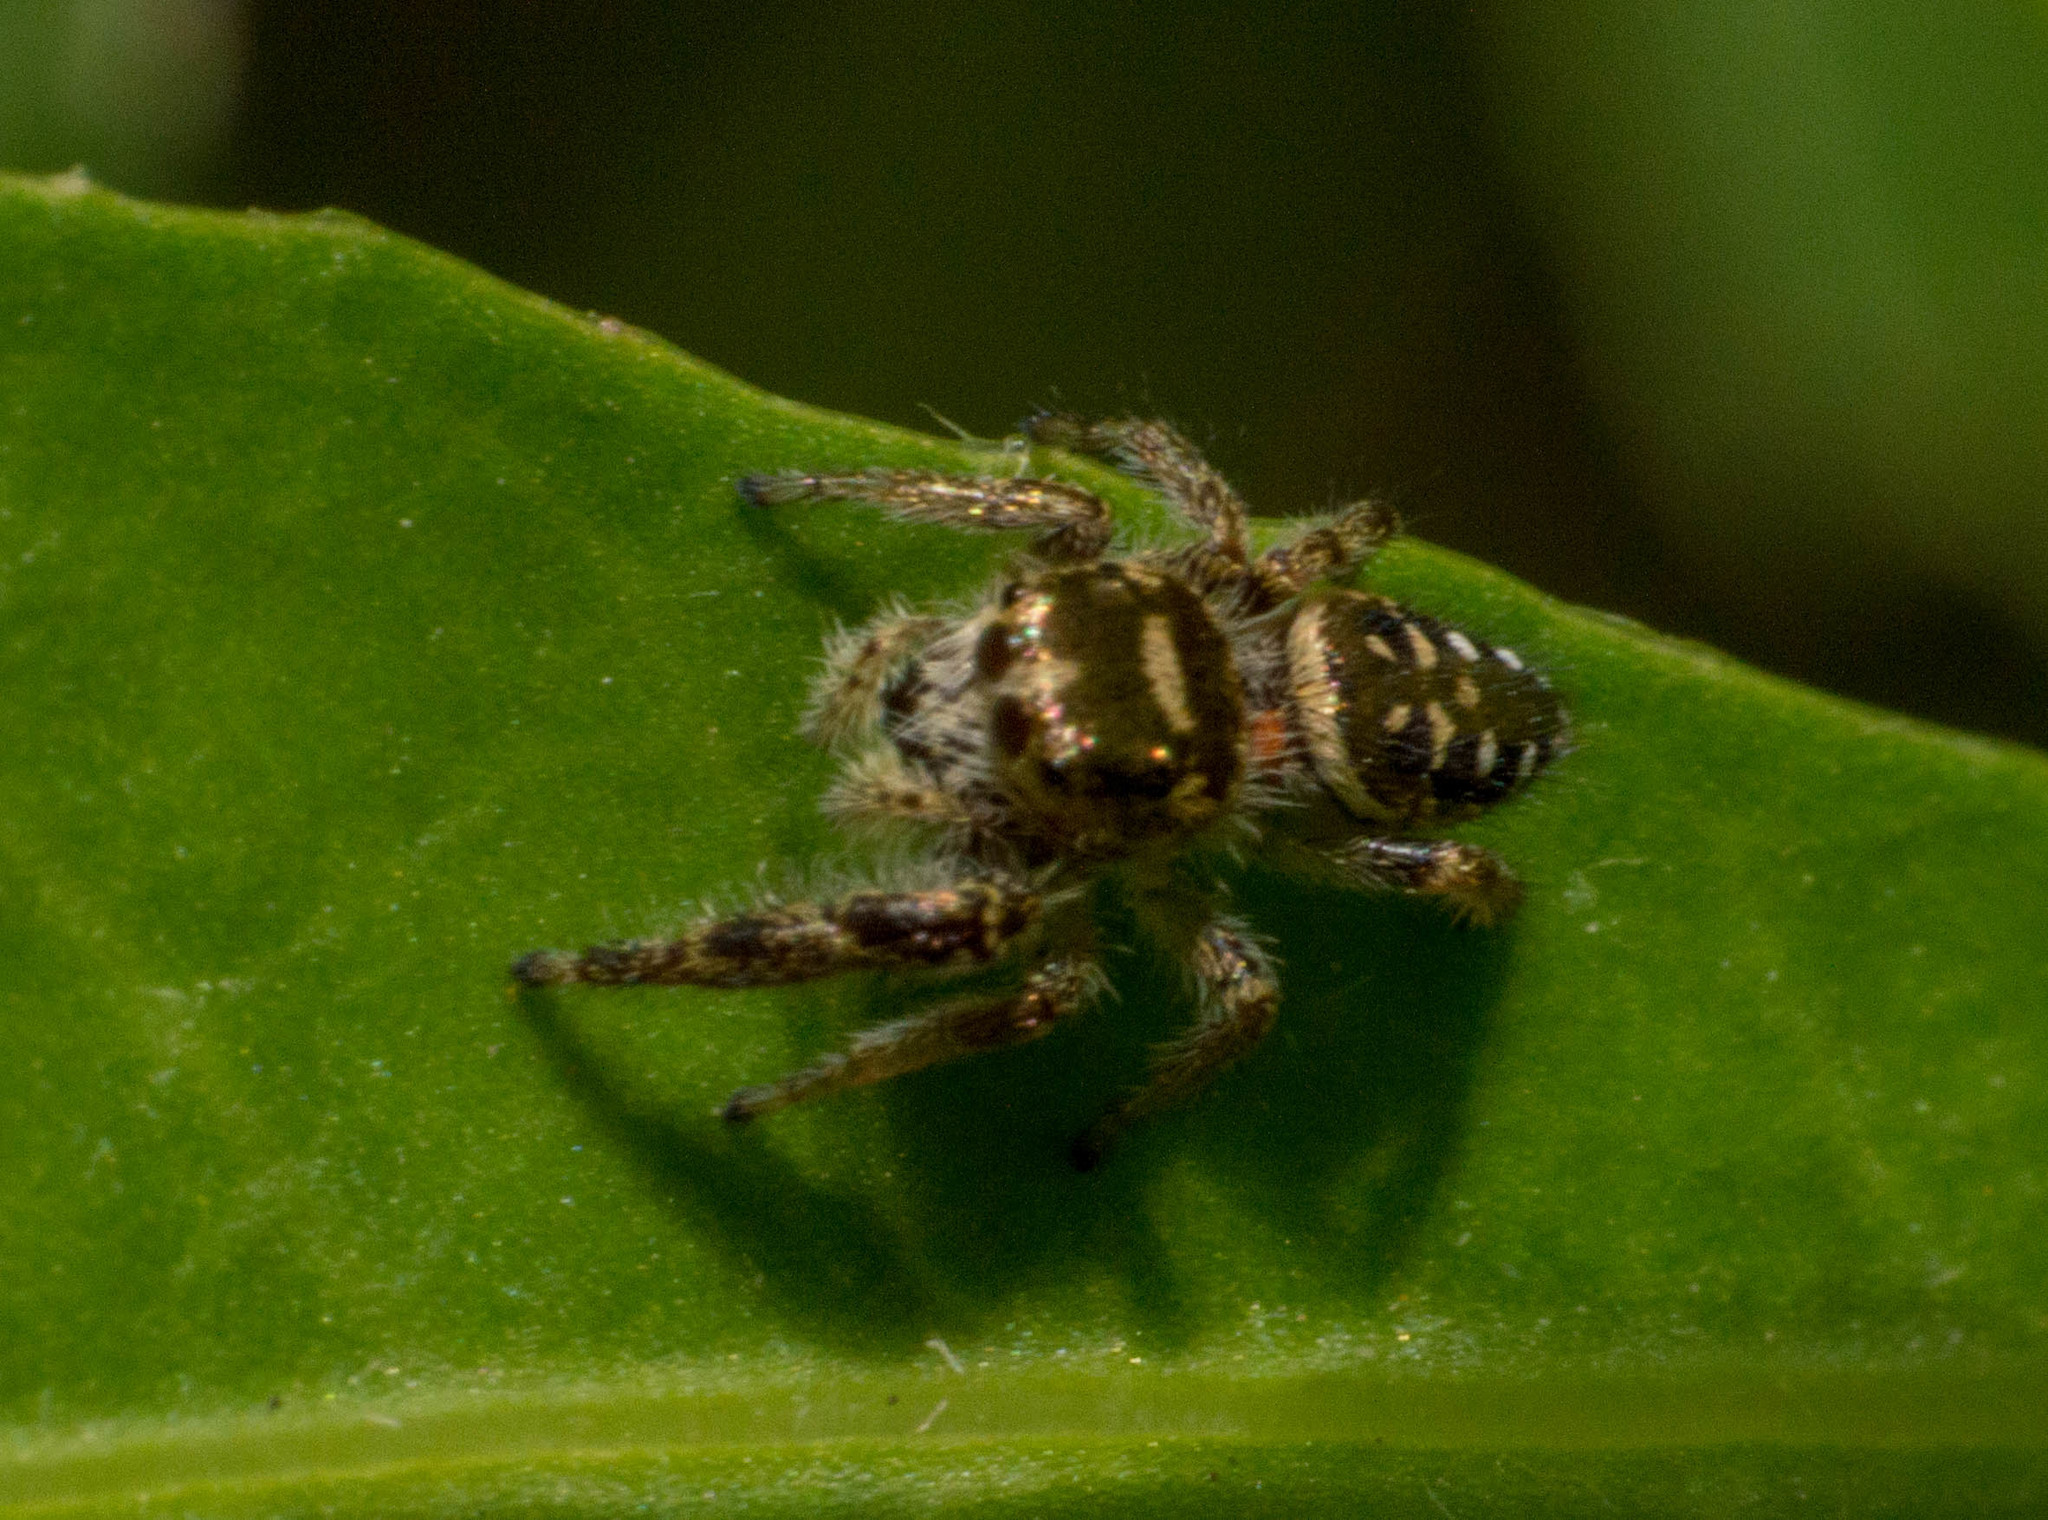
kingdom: Animalia
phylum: Arthropoda
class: Arachnida
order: Araneae
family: Salticidae
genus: Dendryphantes
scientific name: Dendryphantes mordax
